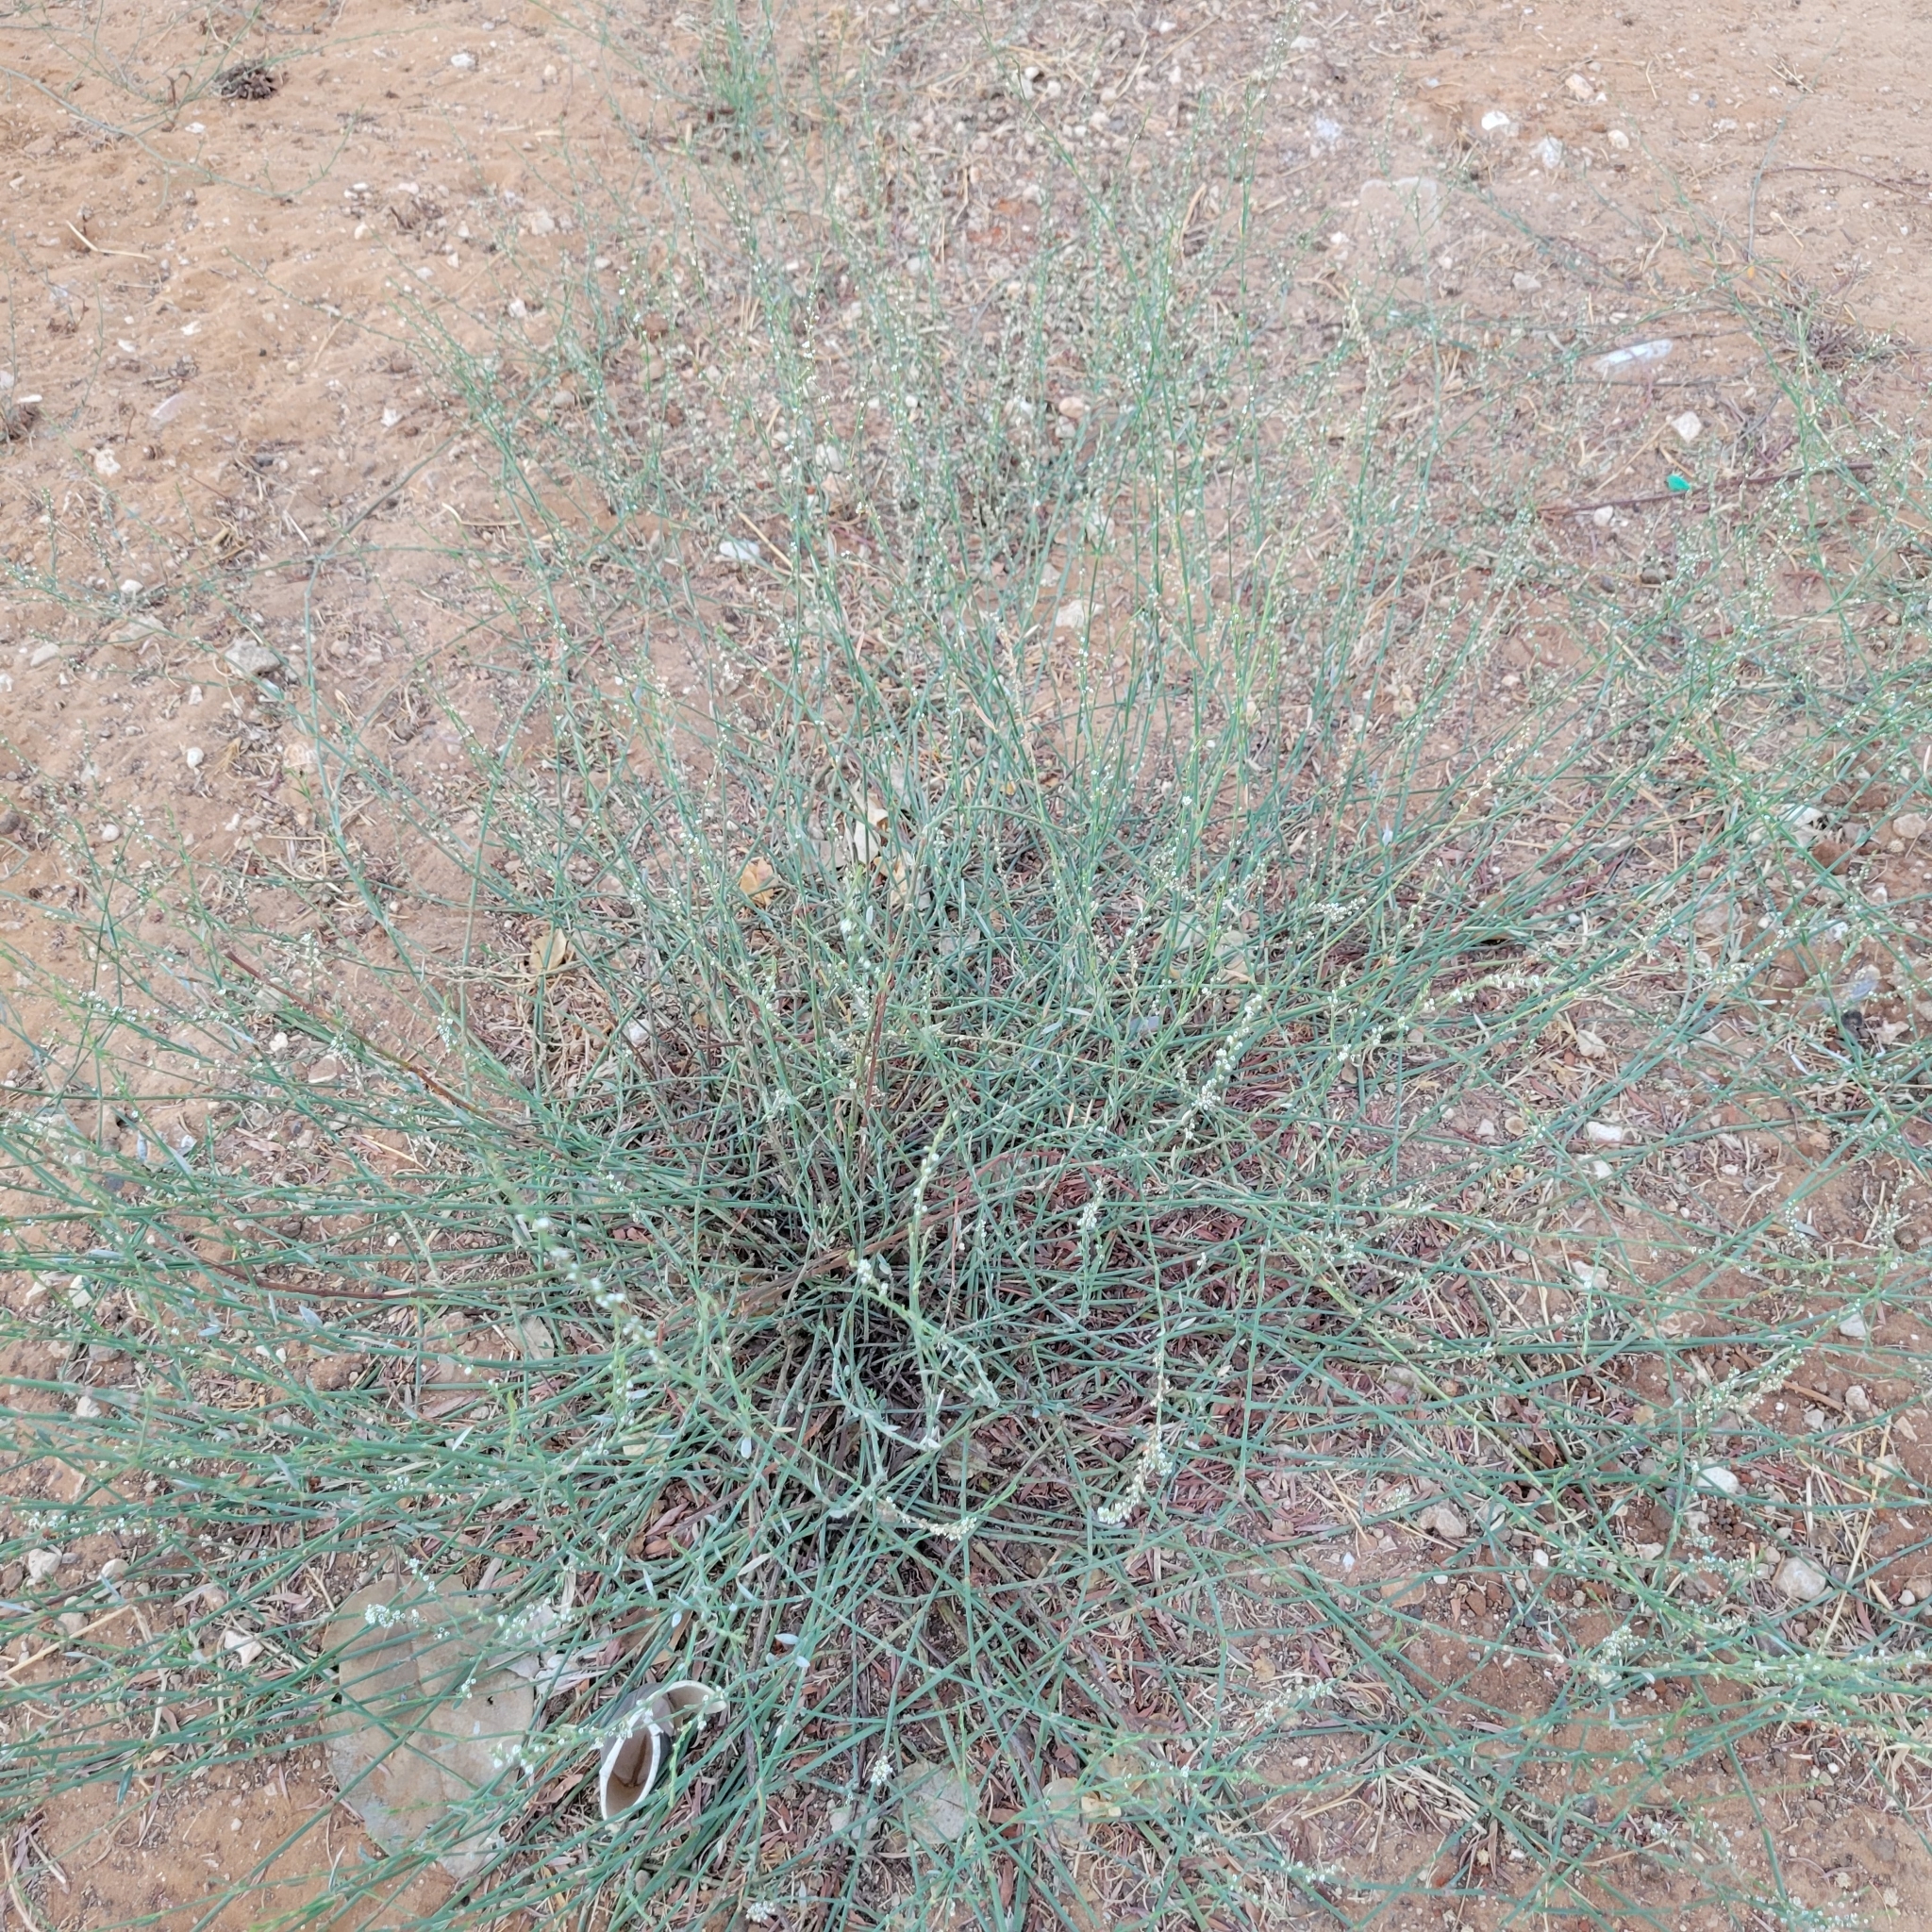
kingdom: Plantae
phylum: Tracheophyta
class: Magnoliopsida
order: Caryophyllales
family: Polygonaceae
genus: Polygonum
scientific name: Polygonum equisetiforme
